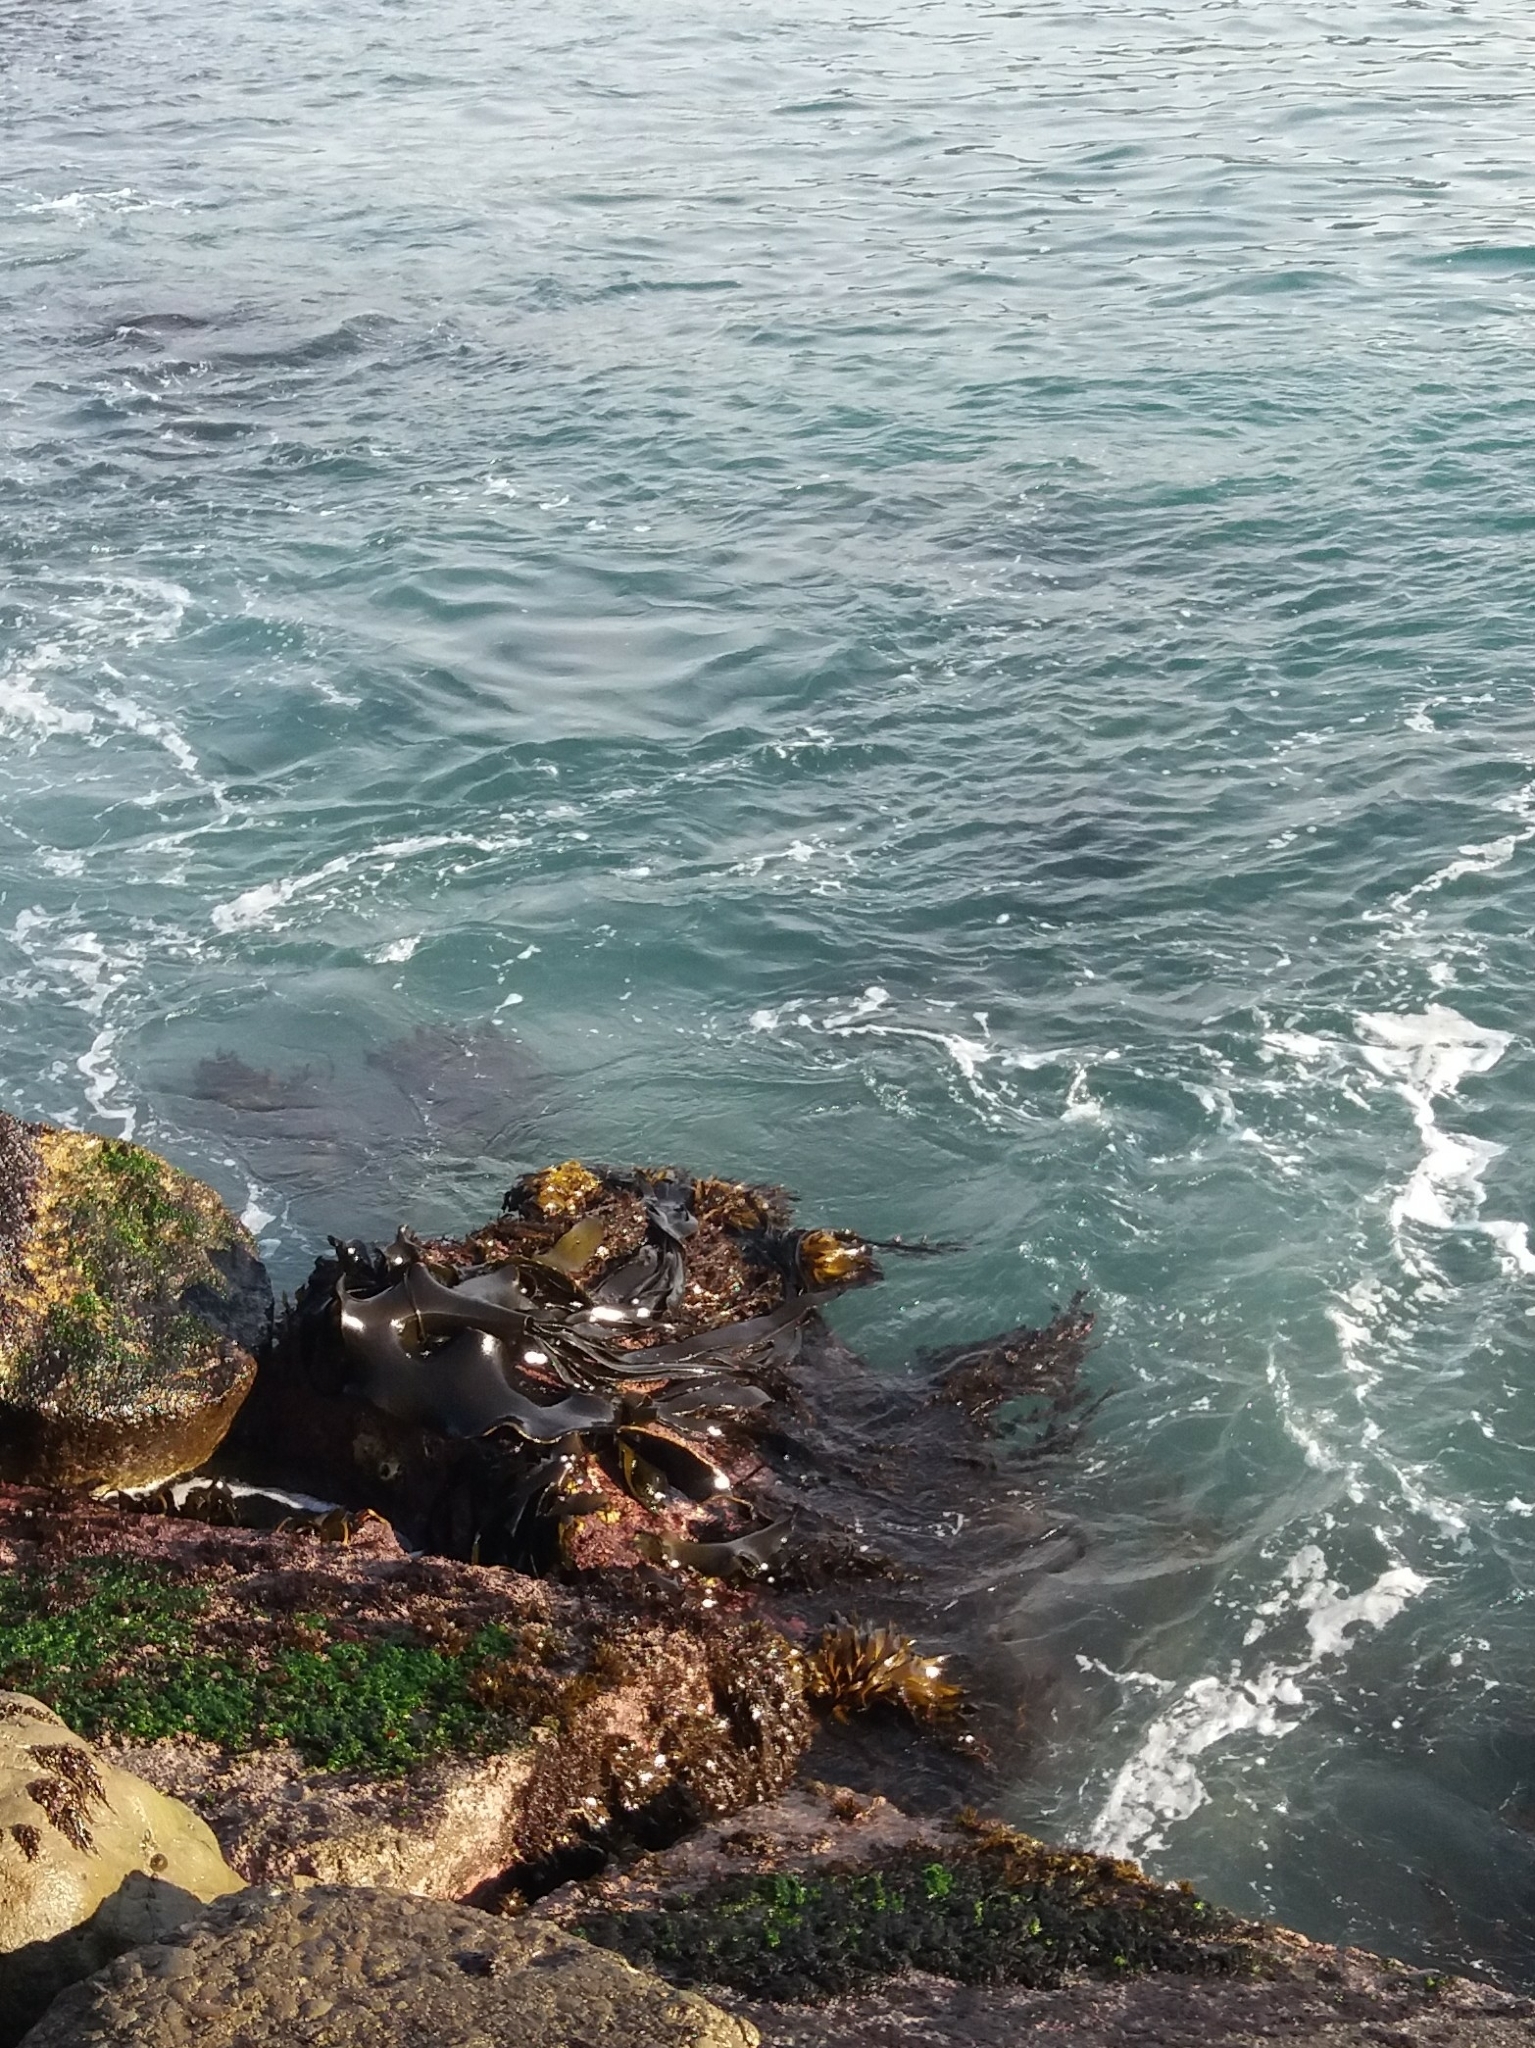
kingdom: Chromista
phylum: Ochrophyta
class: Phaeophyceae
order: Fucales
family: Durvillaeaceae
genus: Durvillaea
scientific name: Durvillaea antarctica
